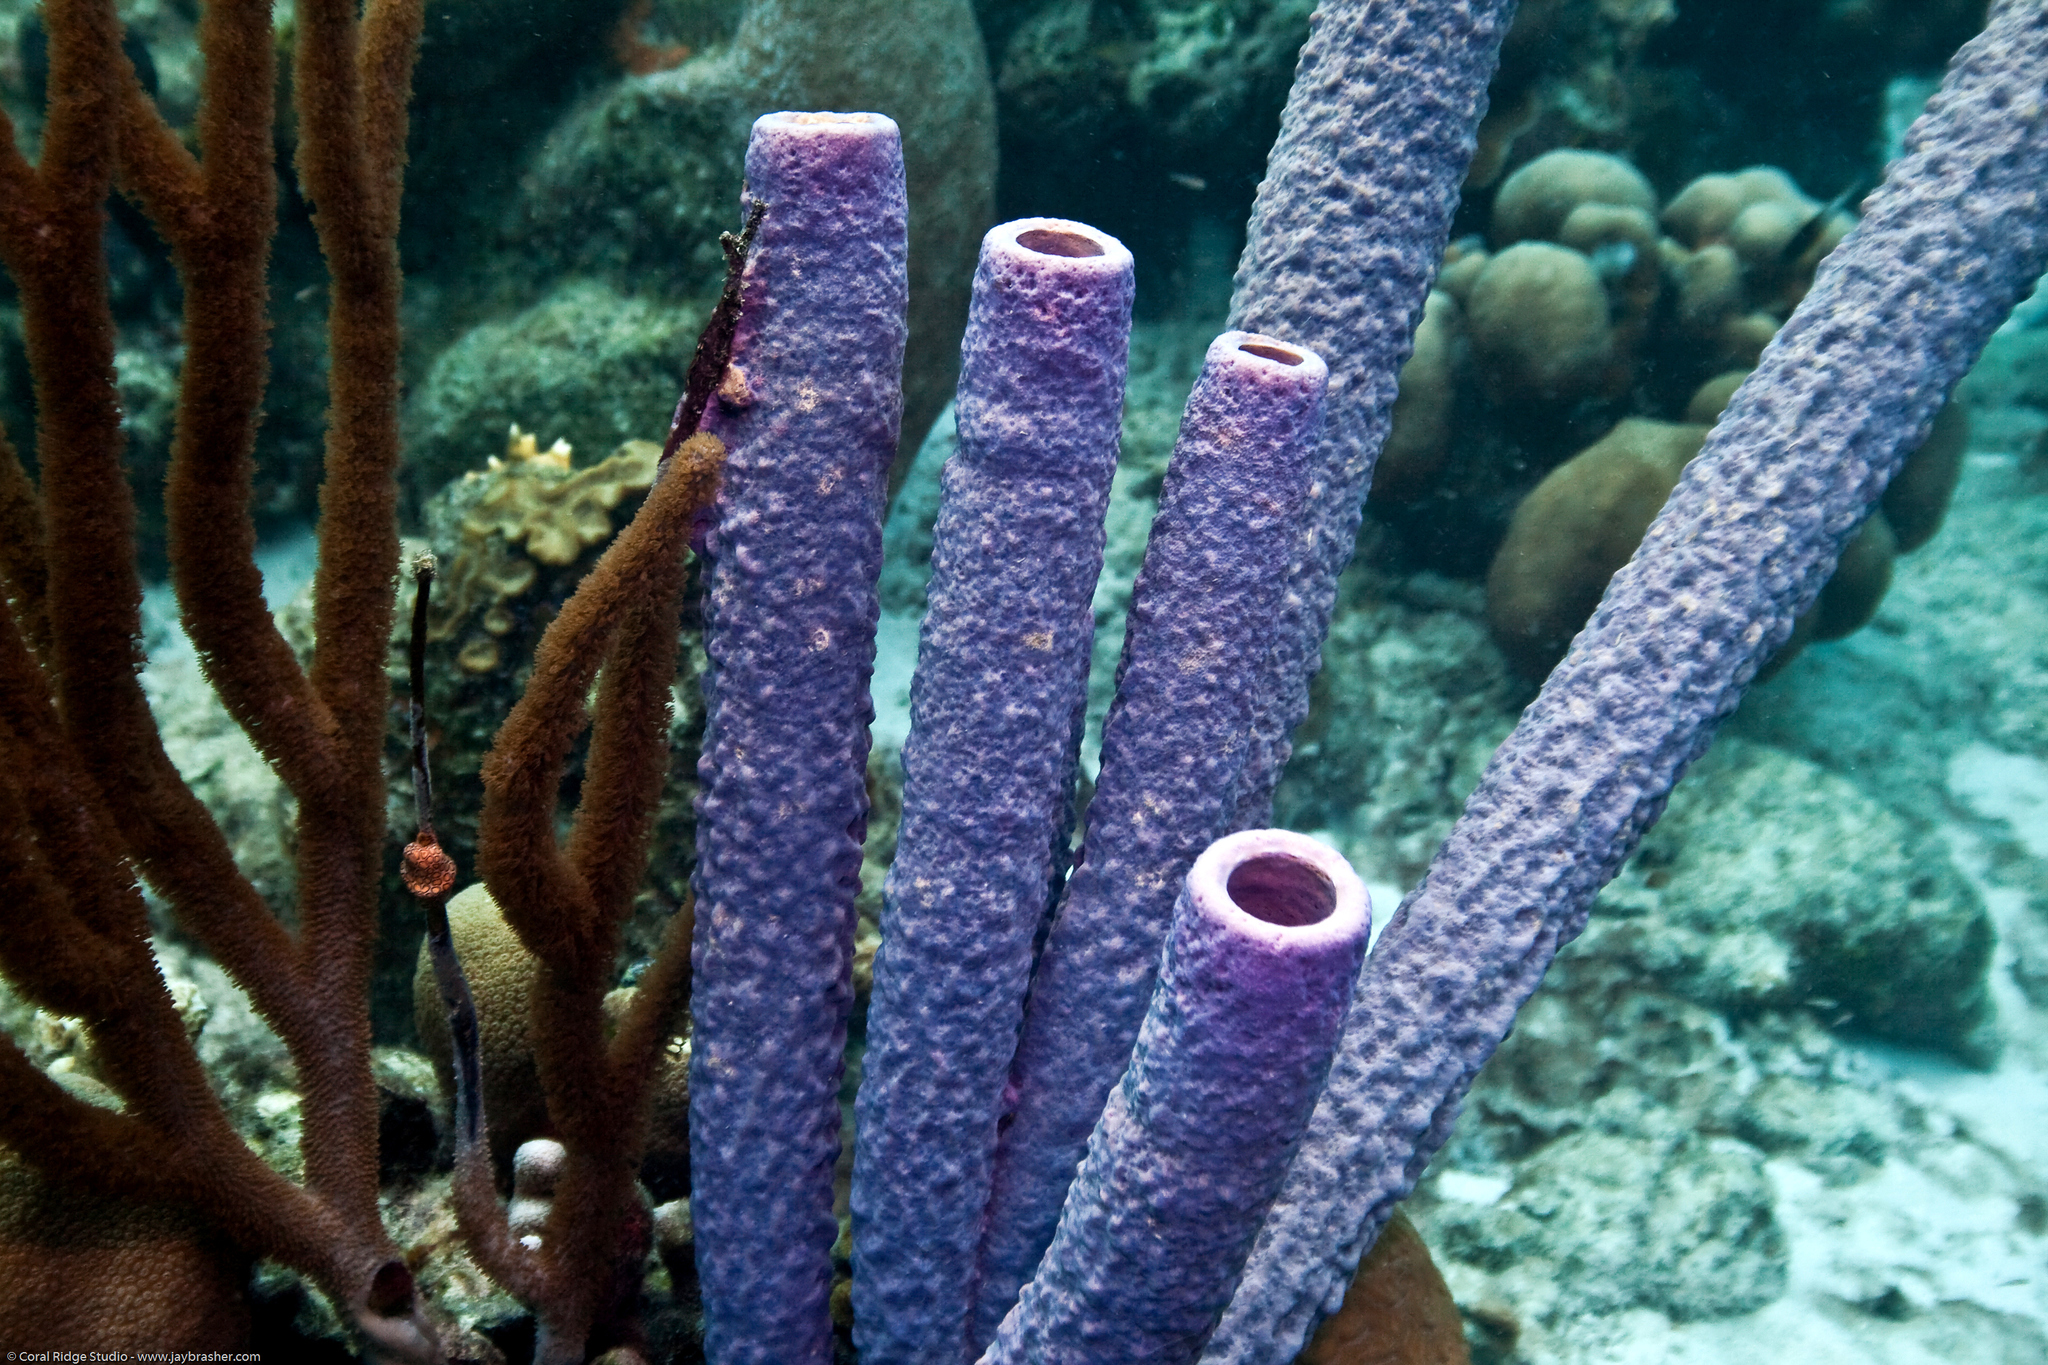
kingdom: Animalia
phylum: Porifera
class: Demospongiae
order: Verongiida
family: Aplysinidae
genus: Aplysina
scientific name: Aplysina archeri
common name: Stove-pipe sponge
